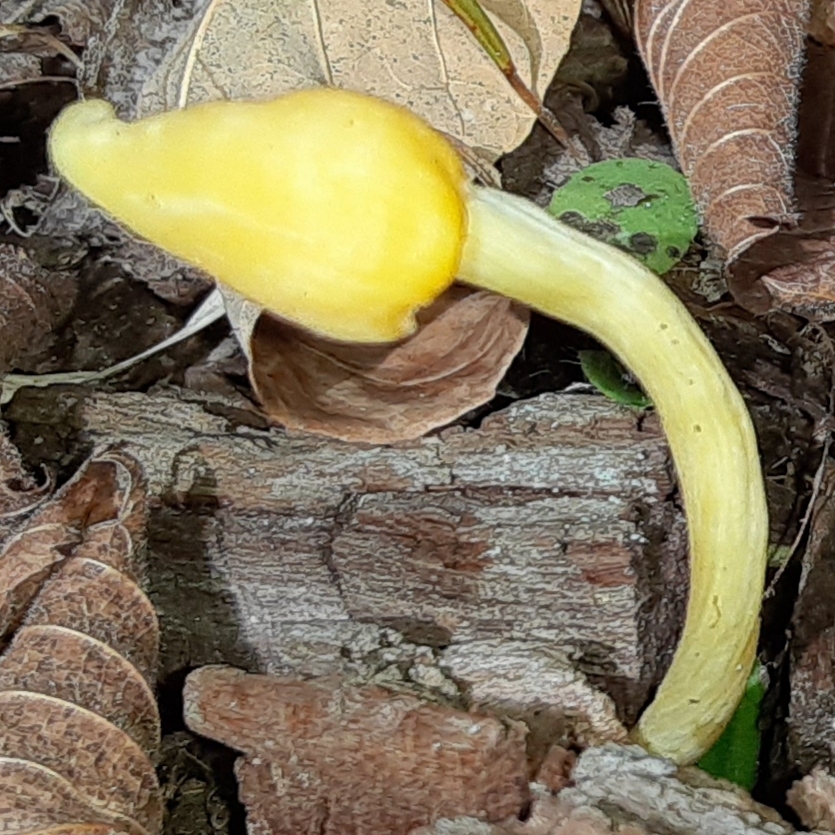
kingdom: Fungi
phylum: Basidiomycota
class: Agaricomycetes
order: Agaricales
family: Entolomataceae
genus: Entoloma
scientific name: Entoloma murrayi
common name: Yellow unicorn entoloma
